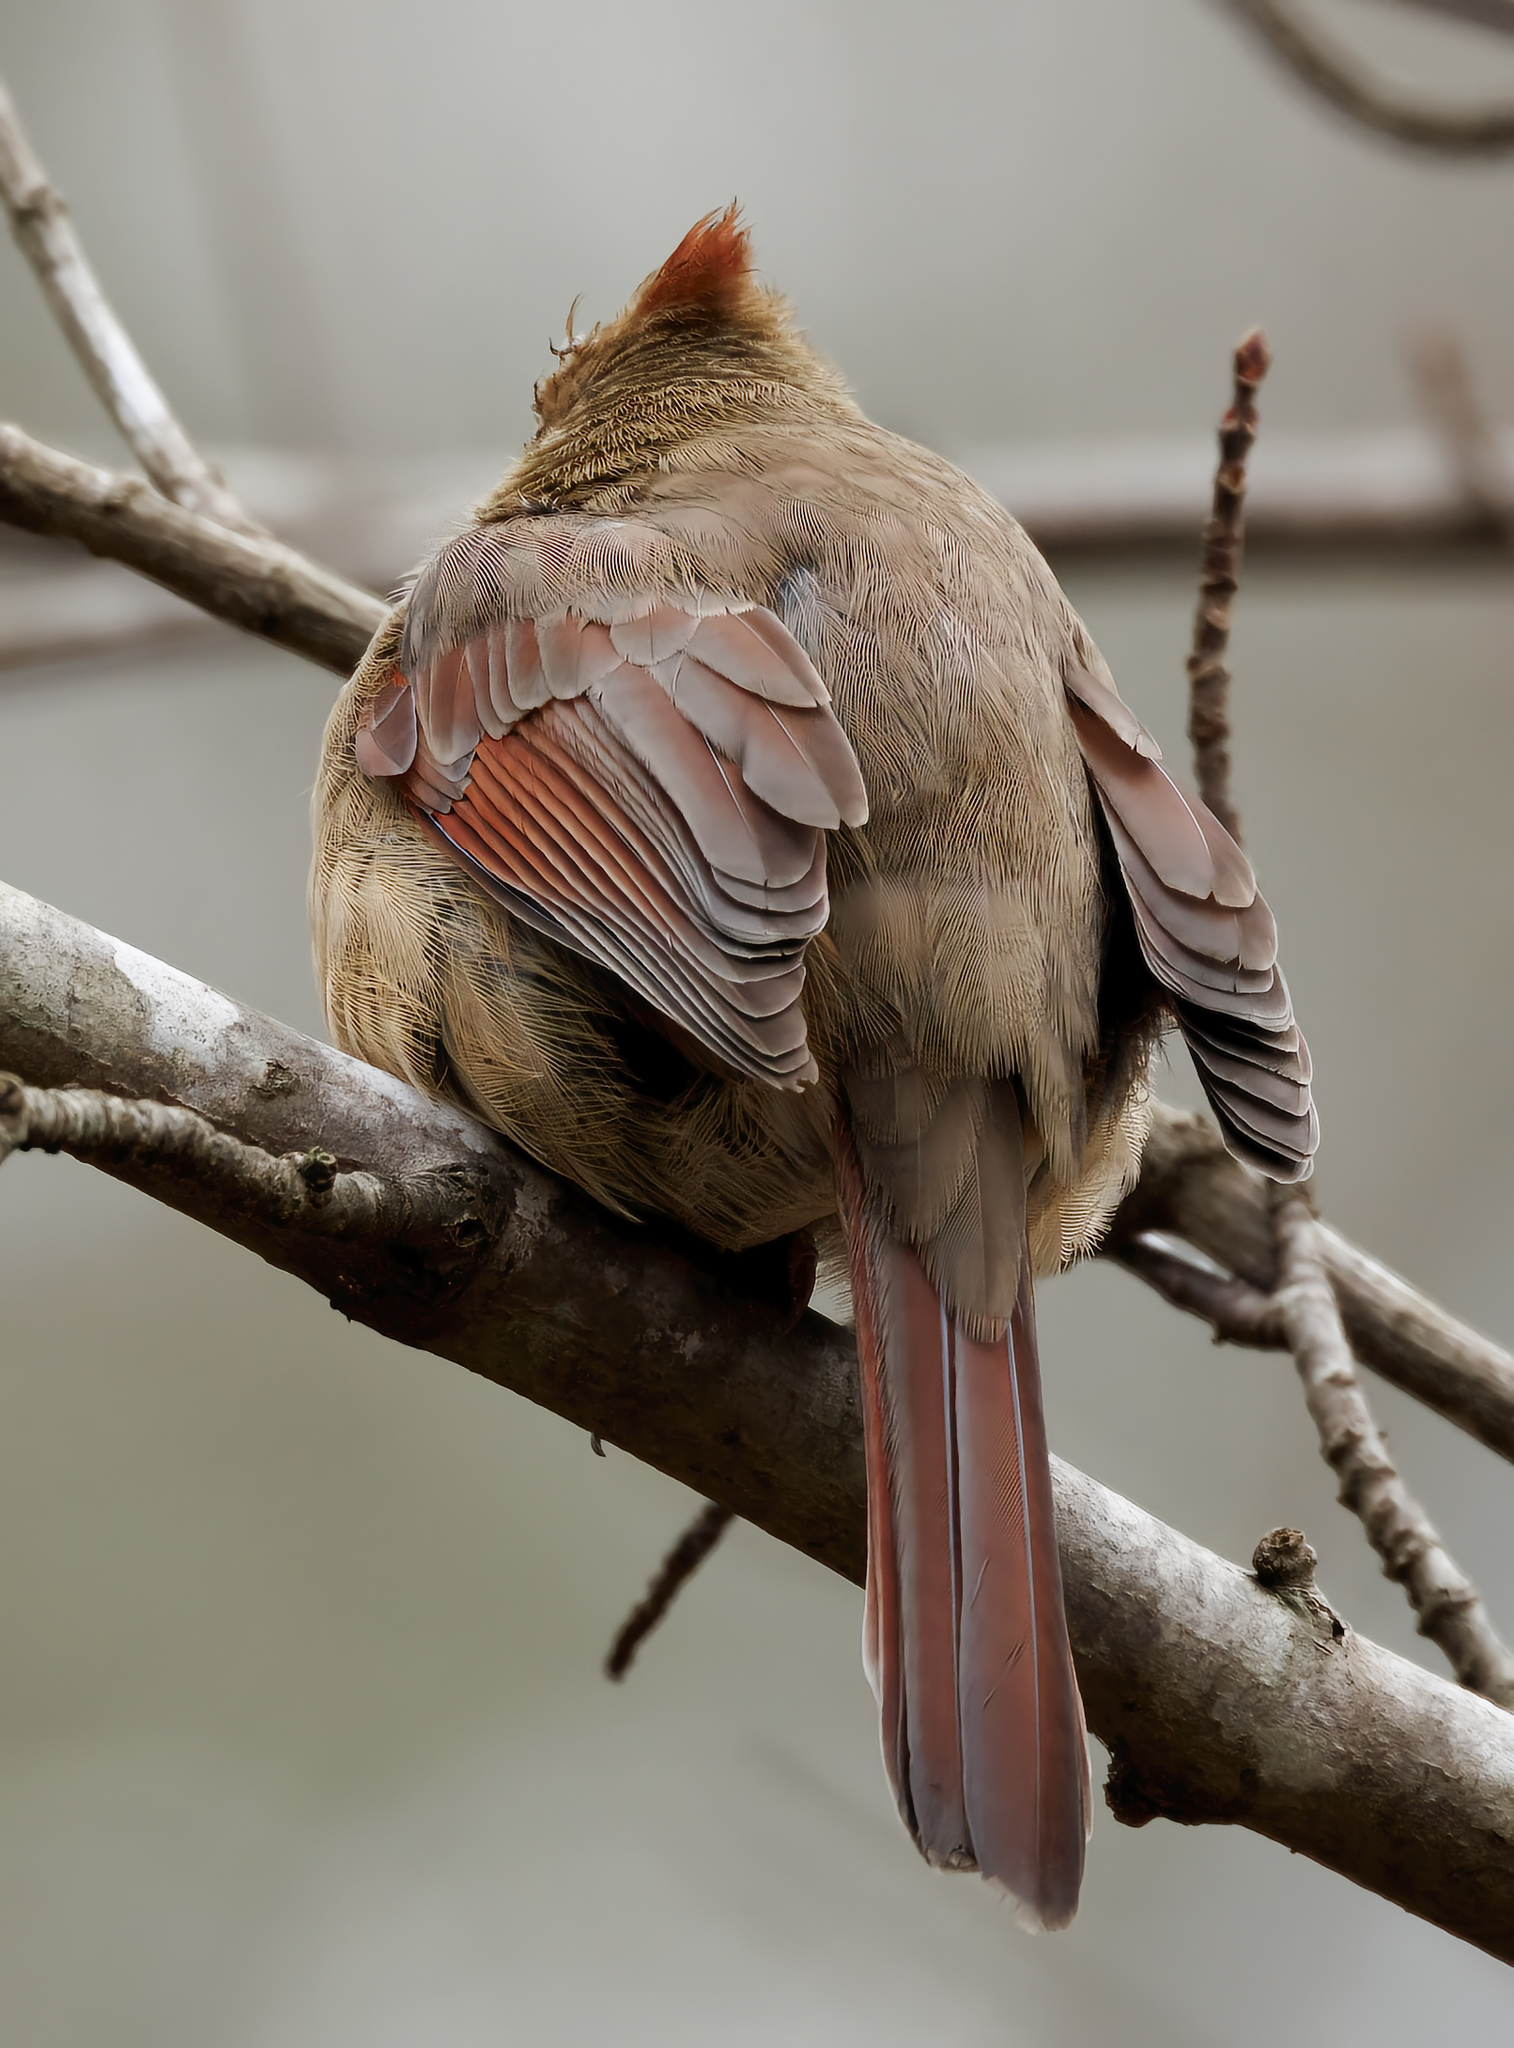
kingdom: Animalia
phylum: Chordata
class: Aves
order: Passeriformes
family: Cardinalidae
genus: Cardinalis
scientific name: Cardinalis cardinalis
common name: Northern cardinal
